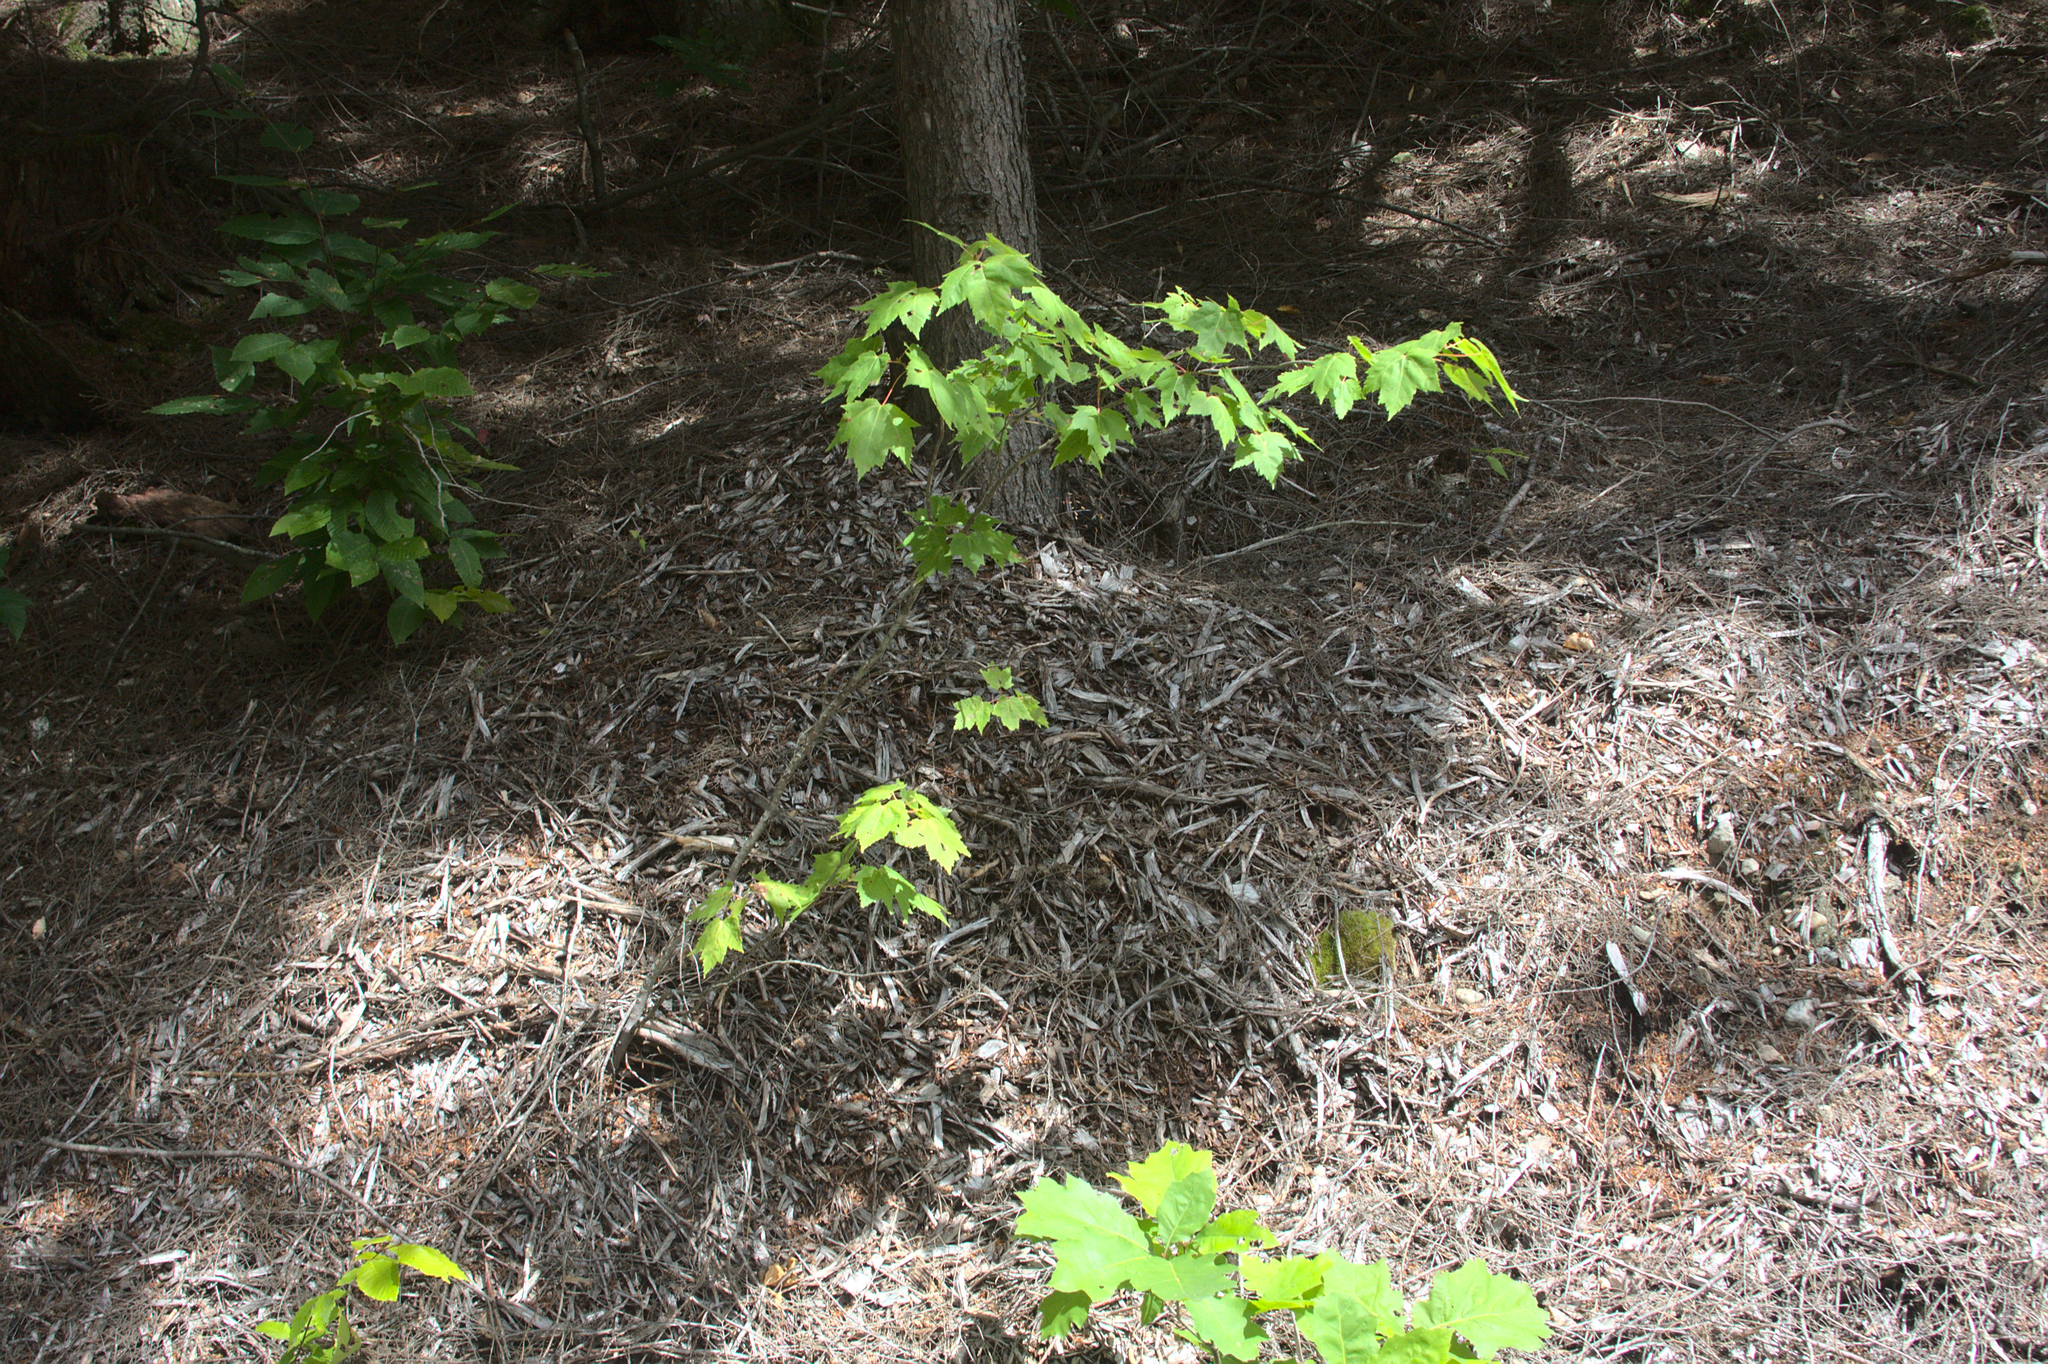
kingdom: Plantae
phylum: Tracheophyta
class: Magnoliopsida
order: Sapindales
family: Sapindaceae
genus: Acer
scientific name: Acer rubrum
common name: Red maple
